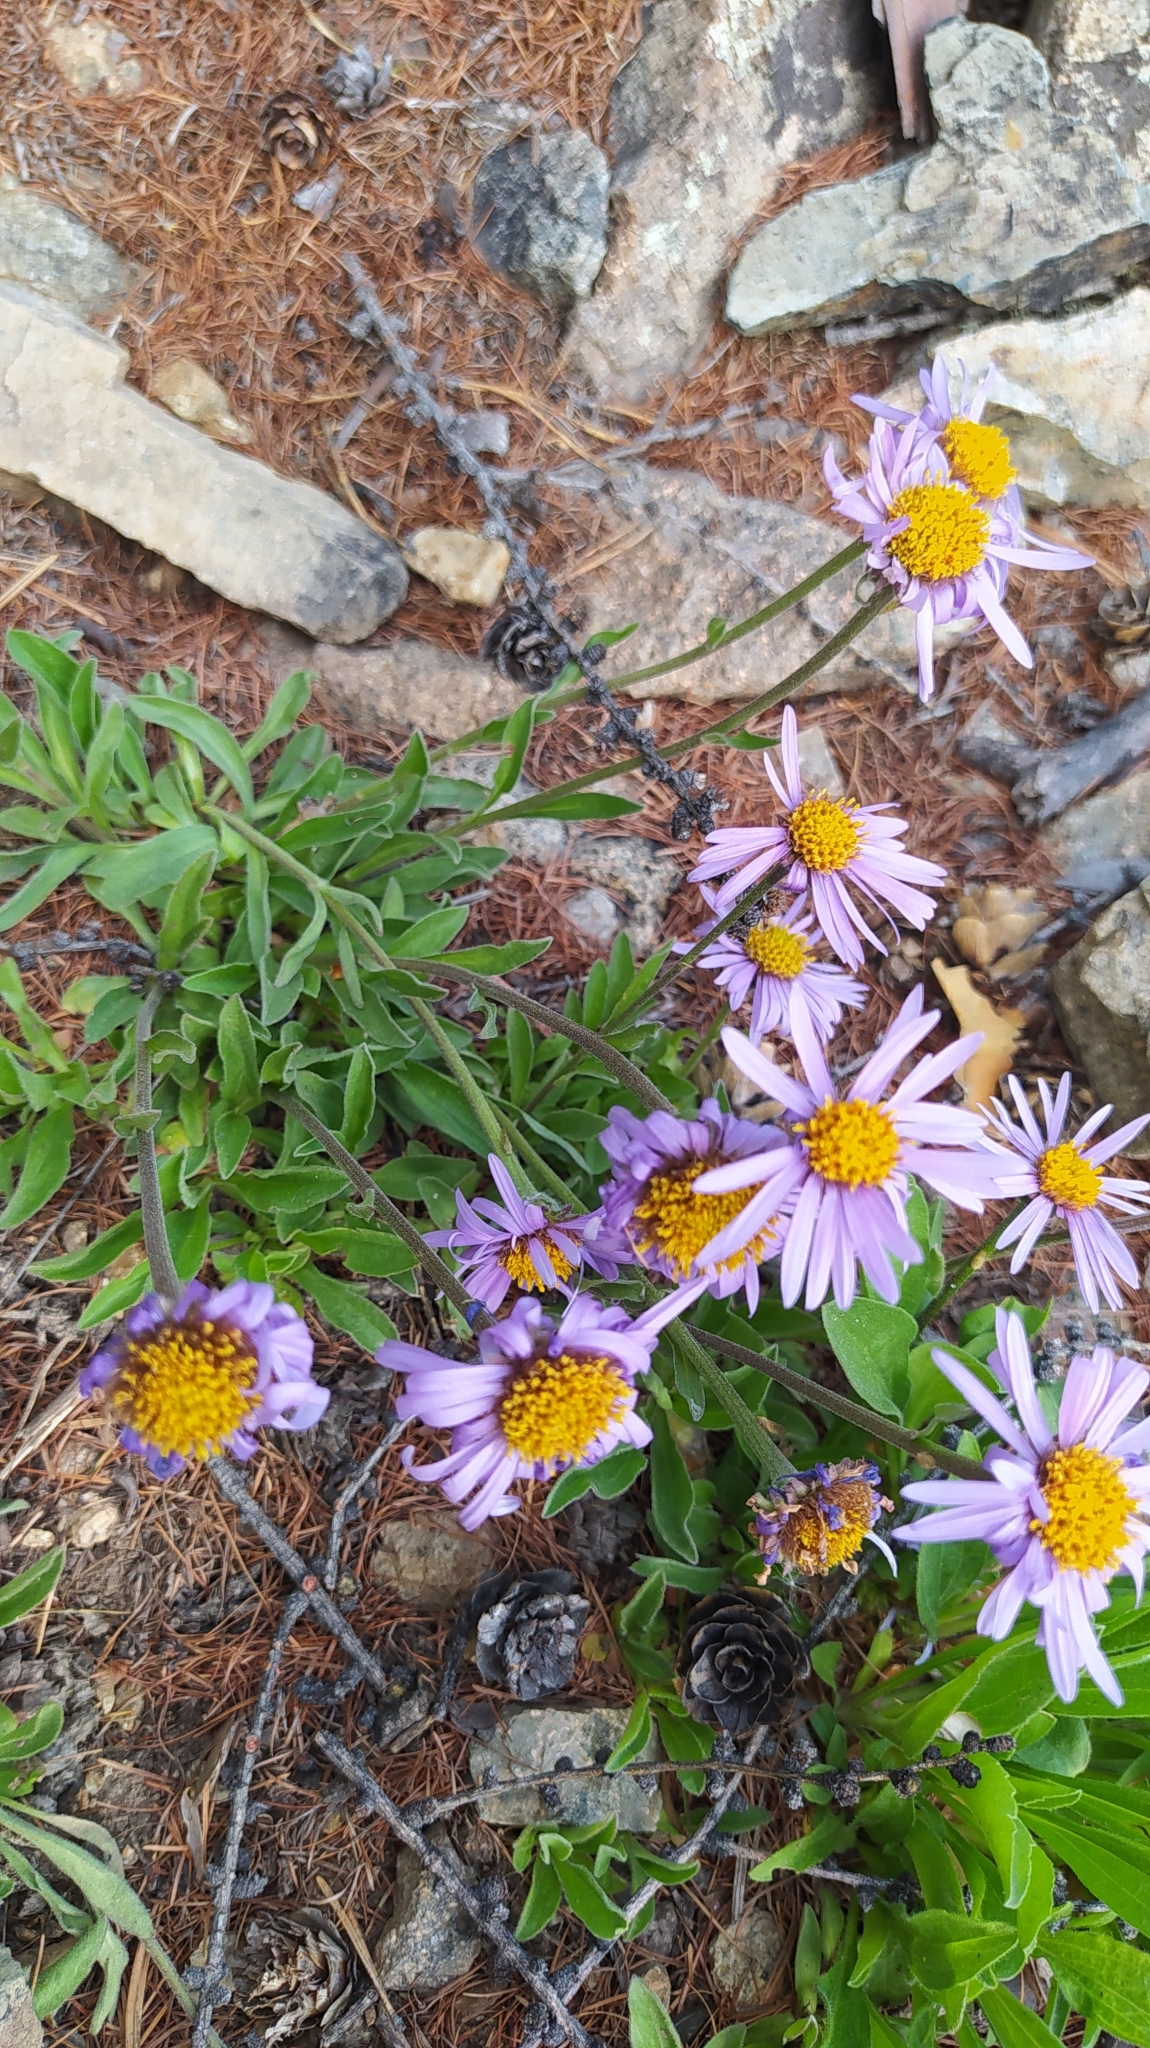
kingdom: Plantae
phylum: Tracheophyta
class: Magnoliopsida
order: Asterales
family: Asteraceae
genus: Aster
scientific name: Aster alpinus
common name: Alpine aster
